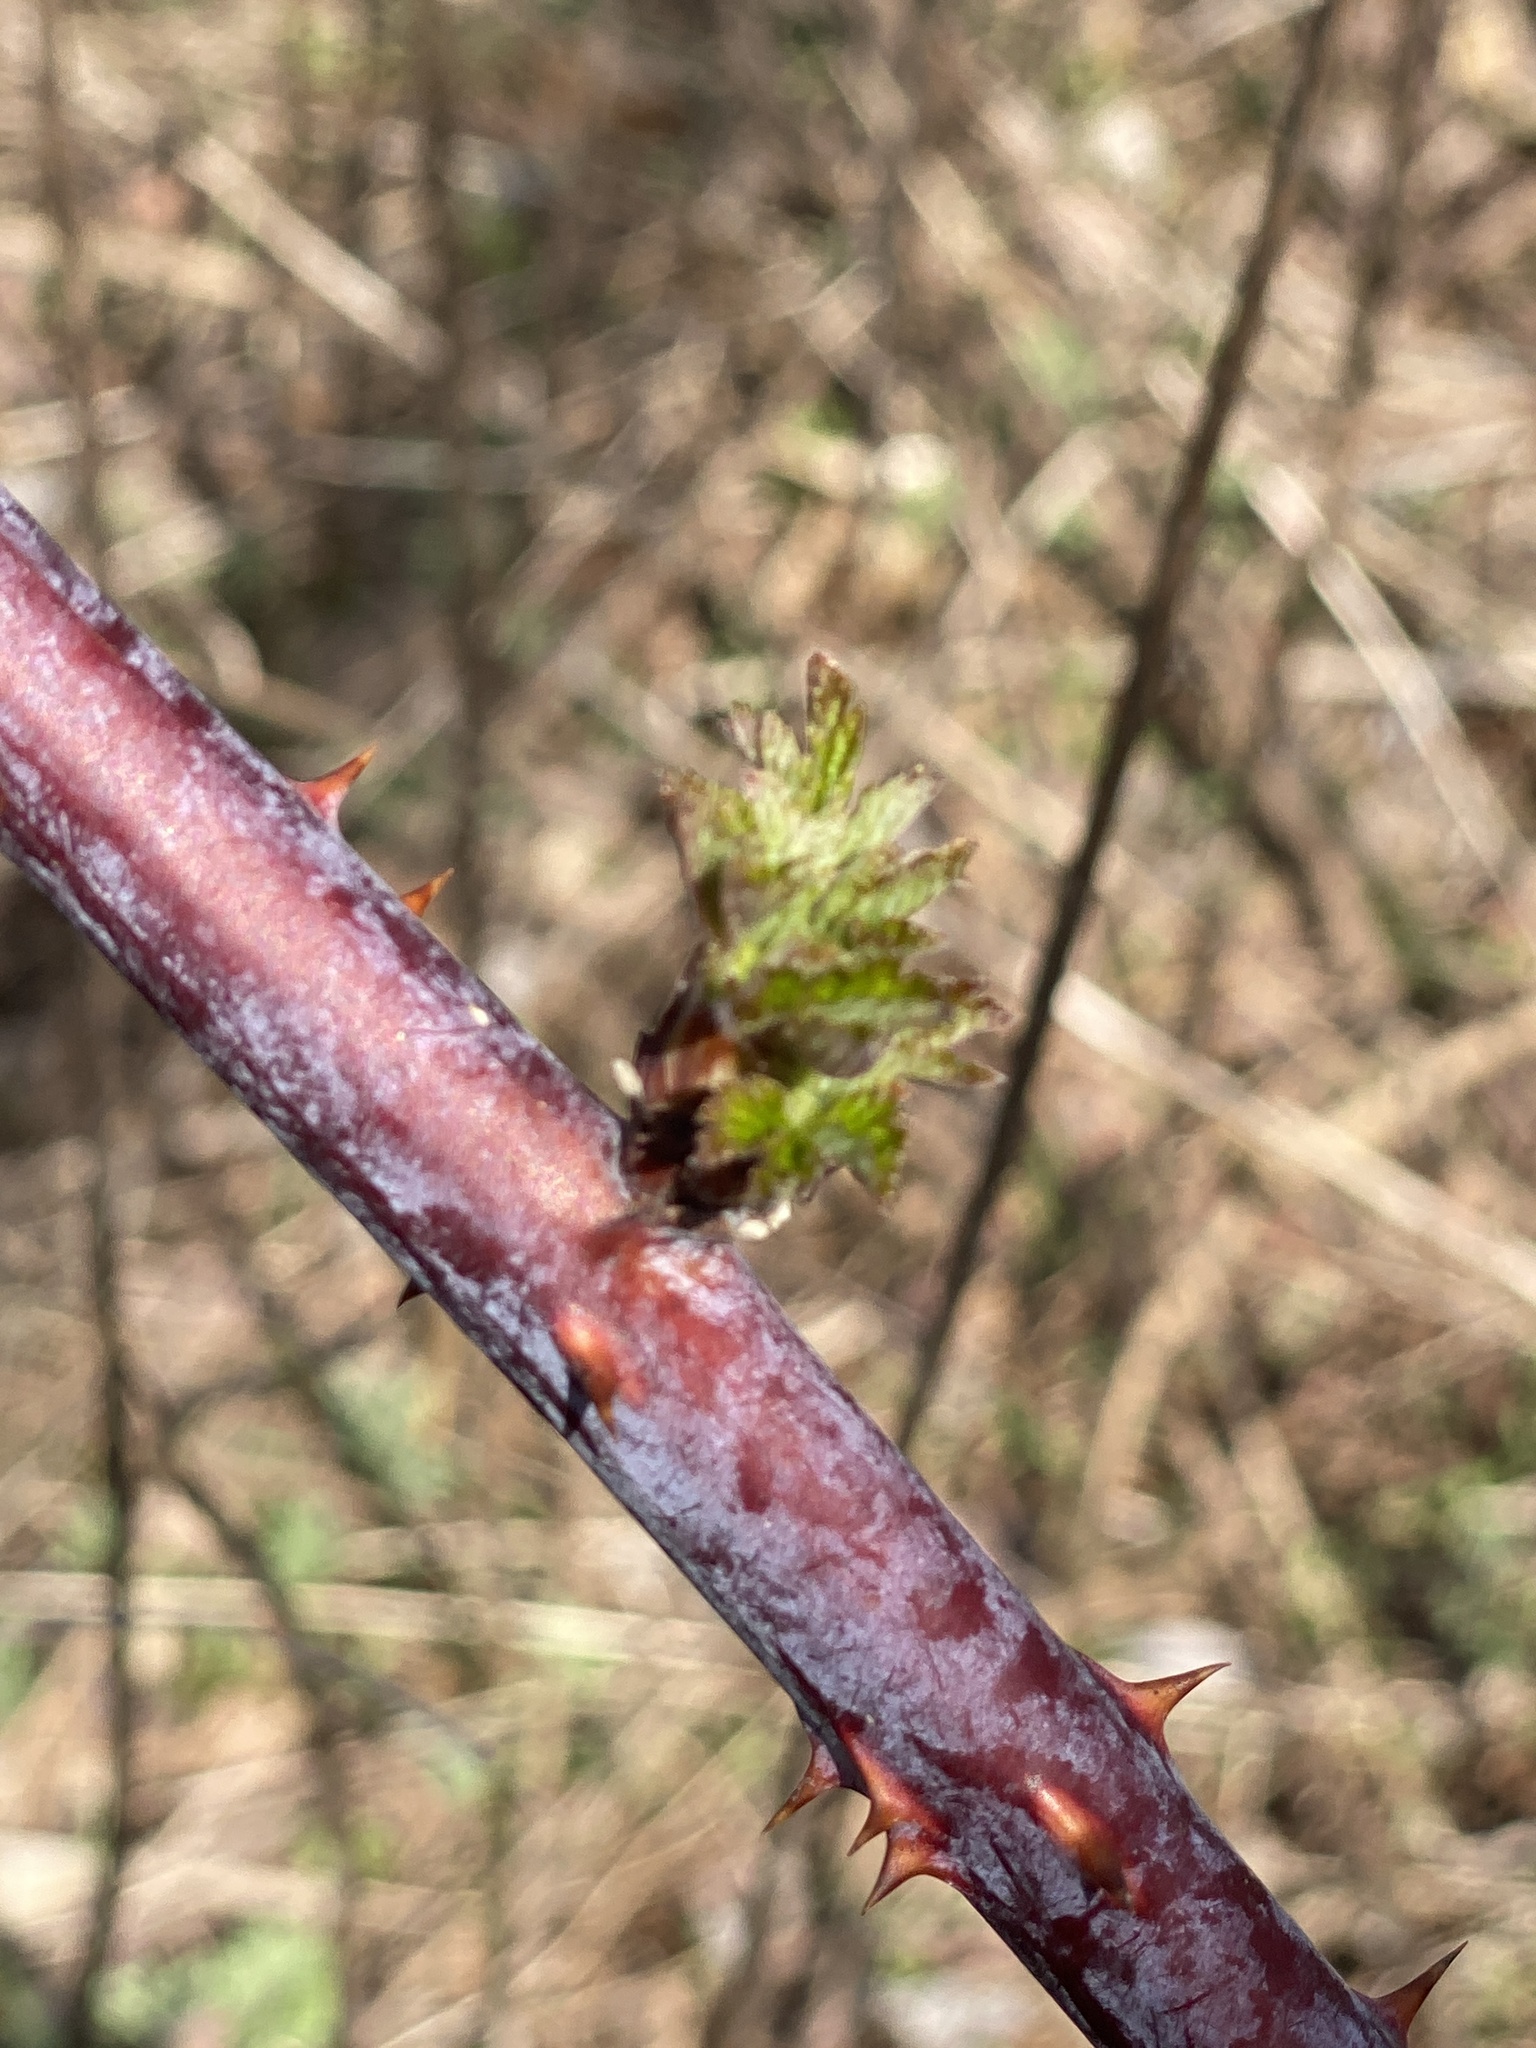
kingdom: Plantae
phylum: Tracheophyta
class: Magnoliopsida
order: Rosales
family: Rosaceae
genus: Rubus
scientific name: Rubus occidentalis
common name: Black raspberry
